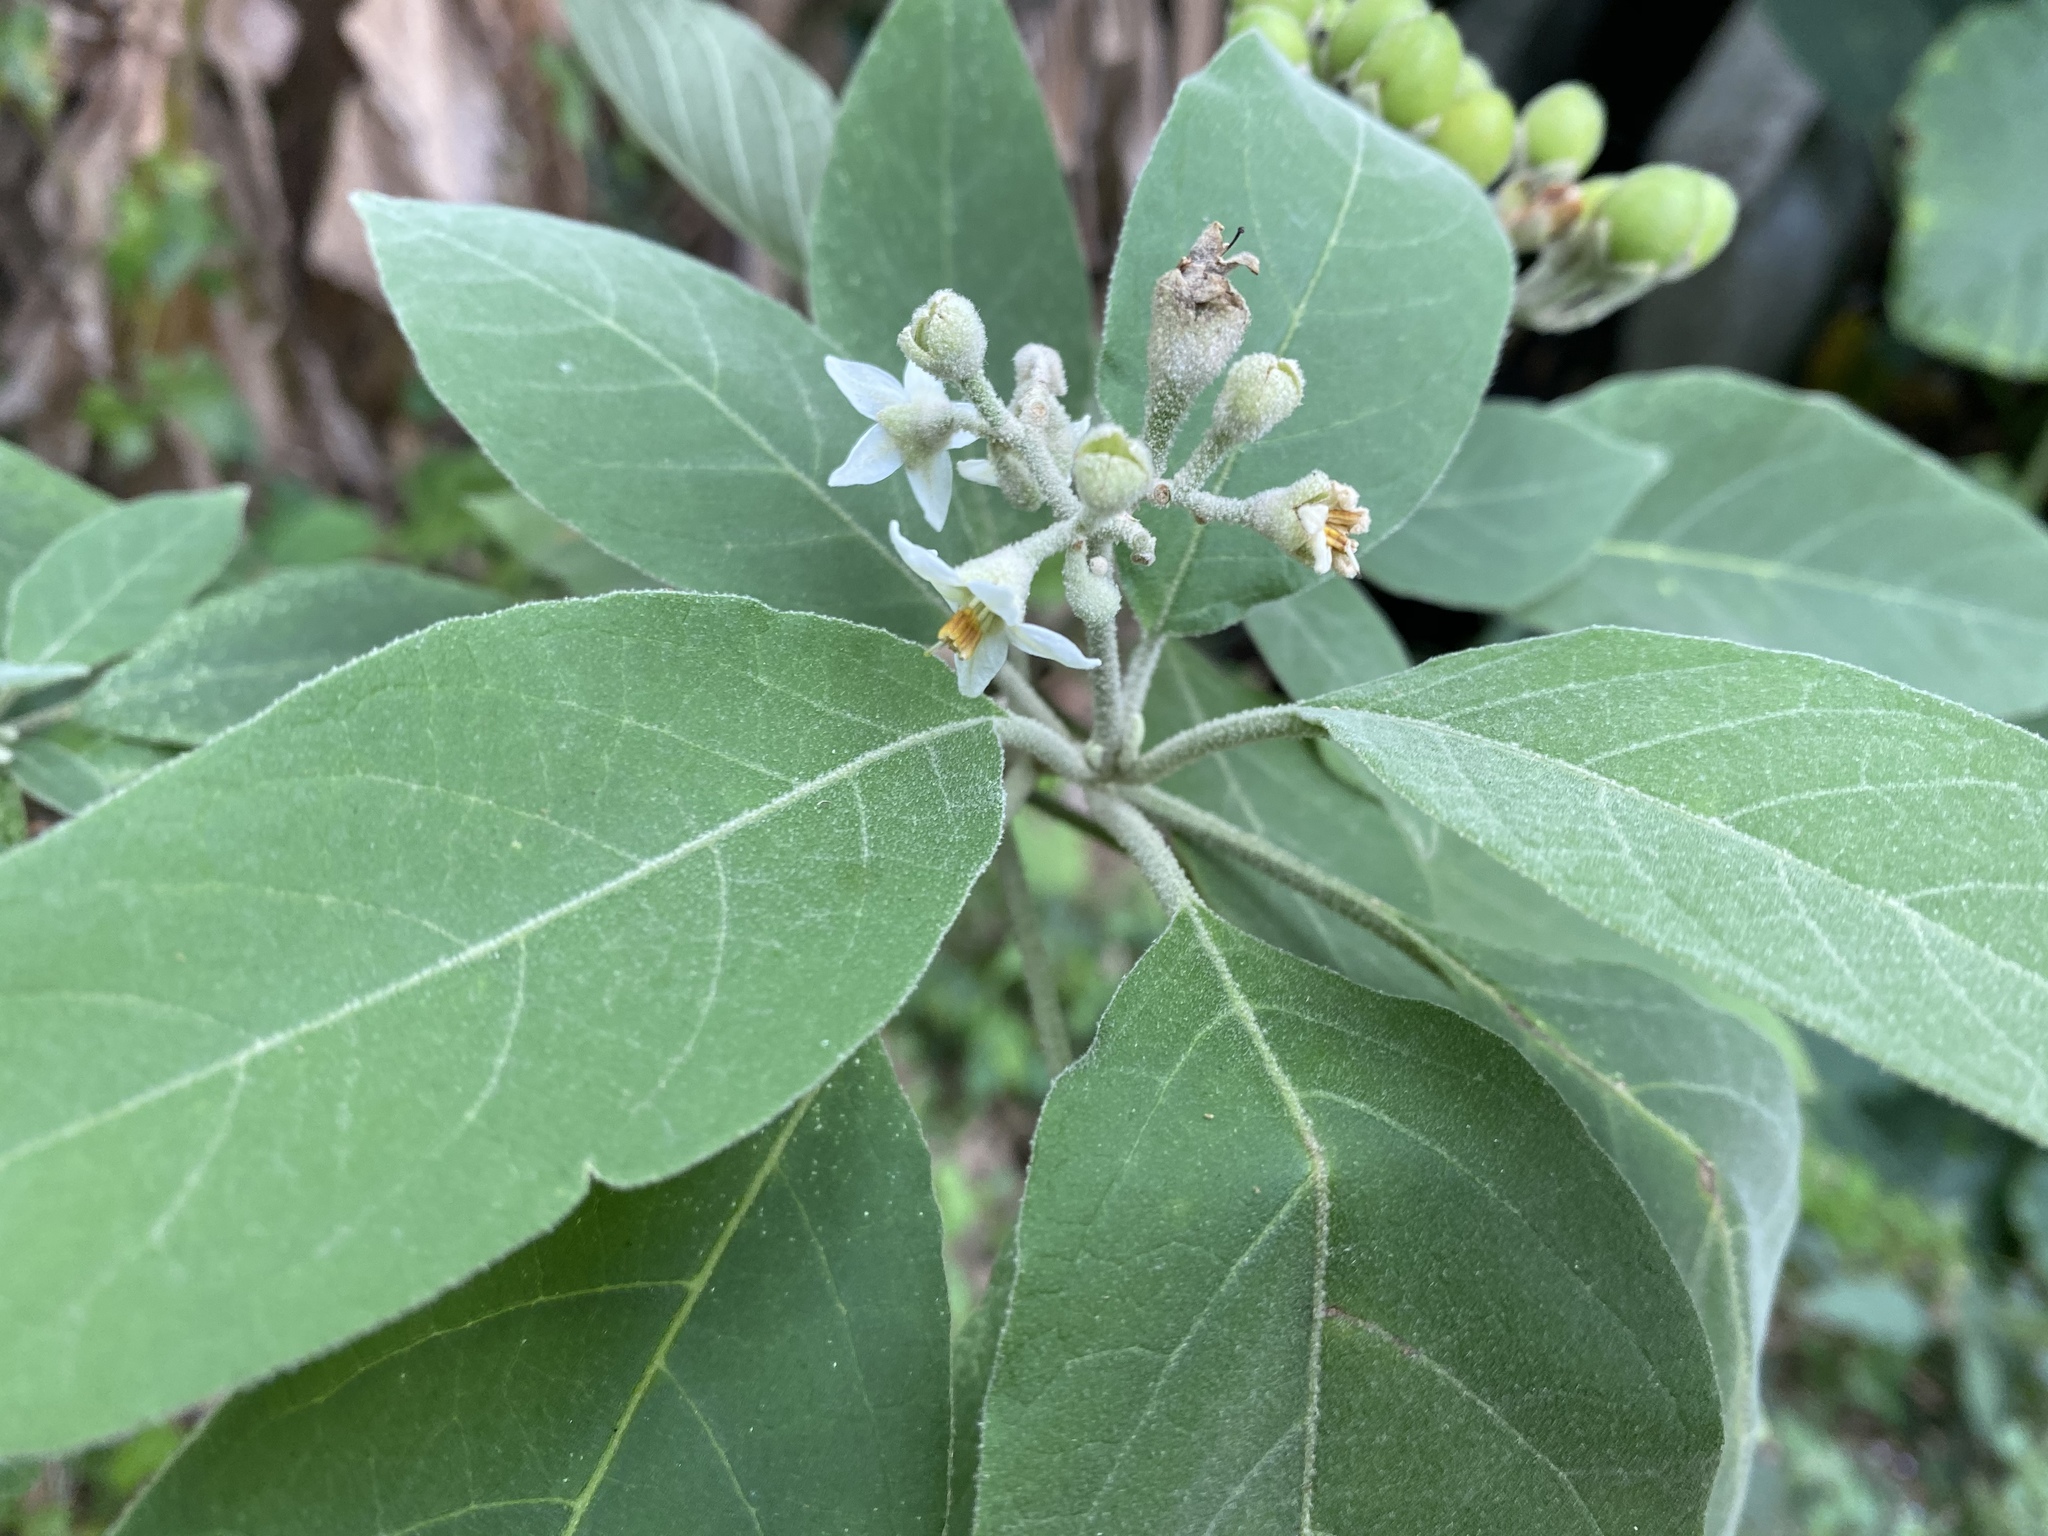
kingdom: Plantae
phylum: Tracheophyta
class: Magnoliopsida
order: Solanales
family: Solanaceae
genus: Solanum
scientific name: Solanum erianthum
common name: Tobacco-tree
